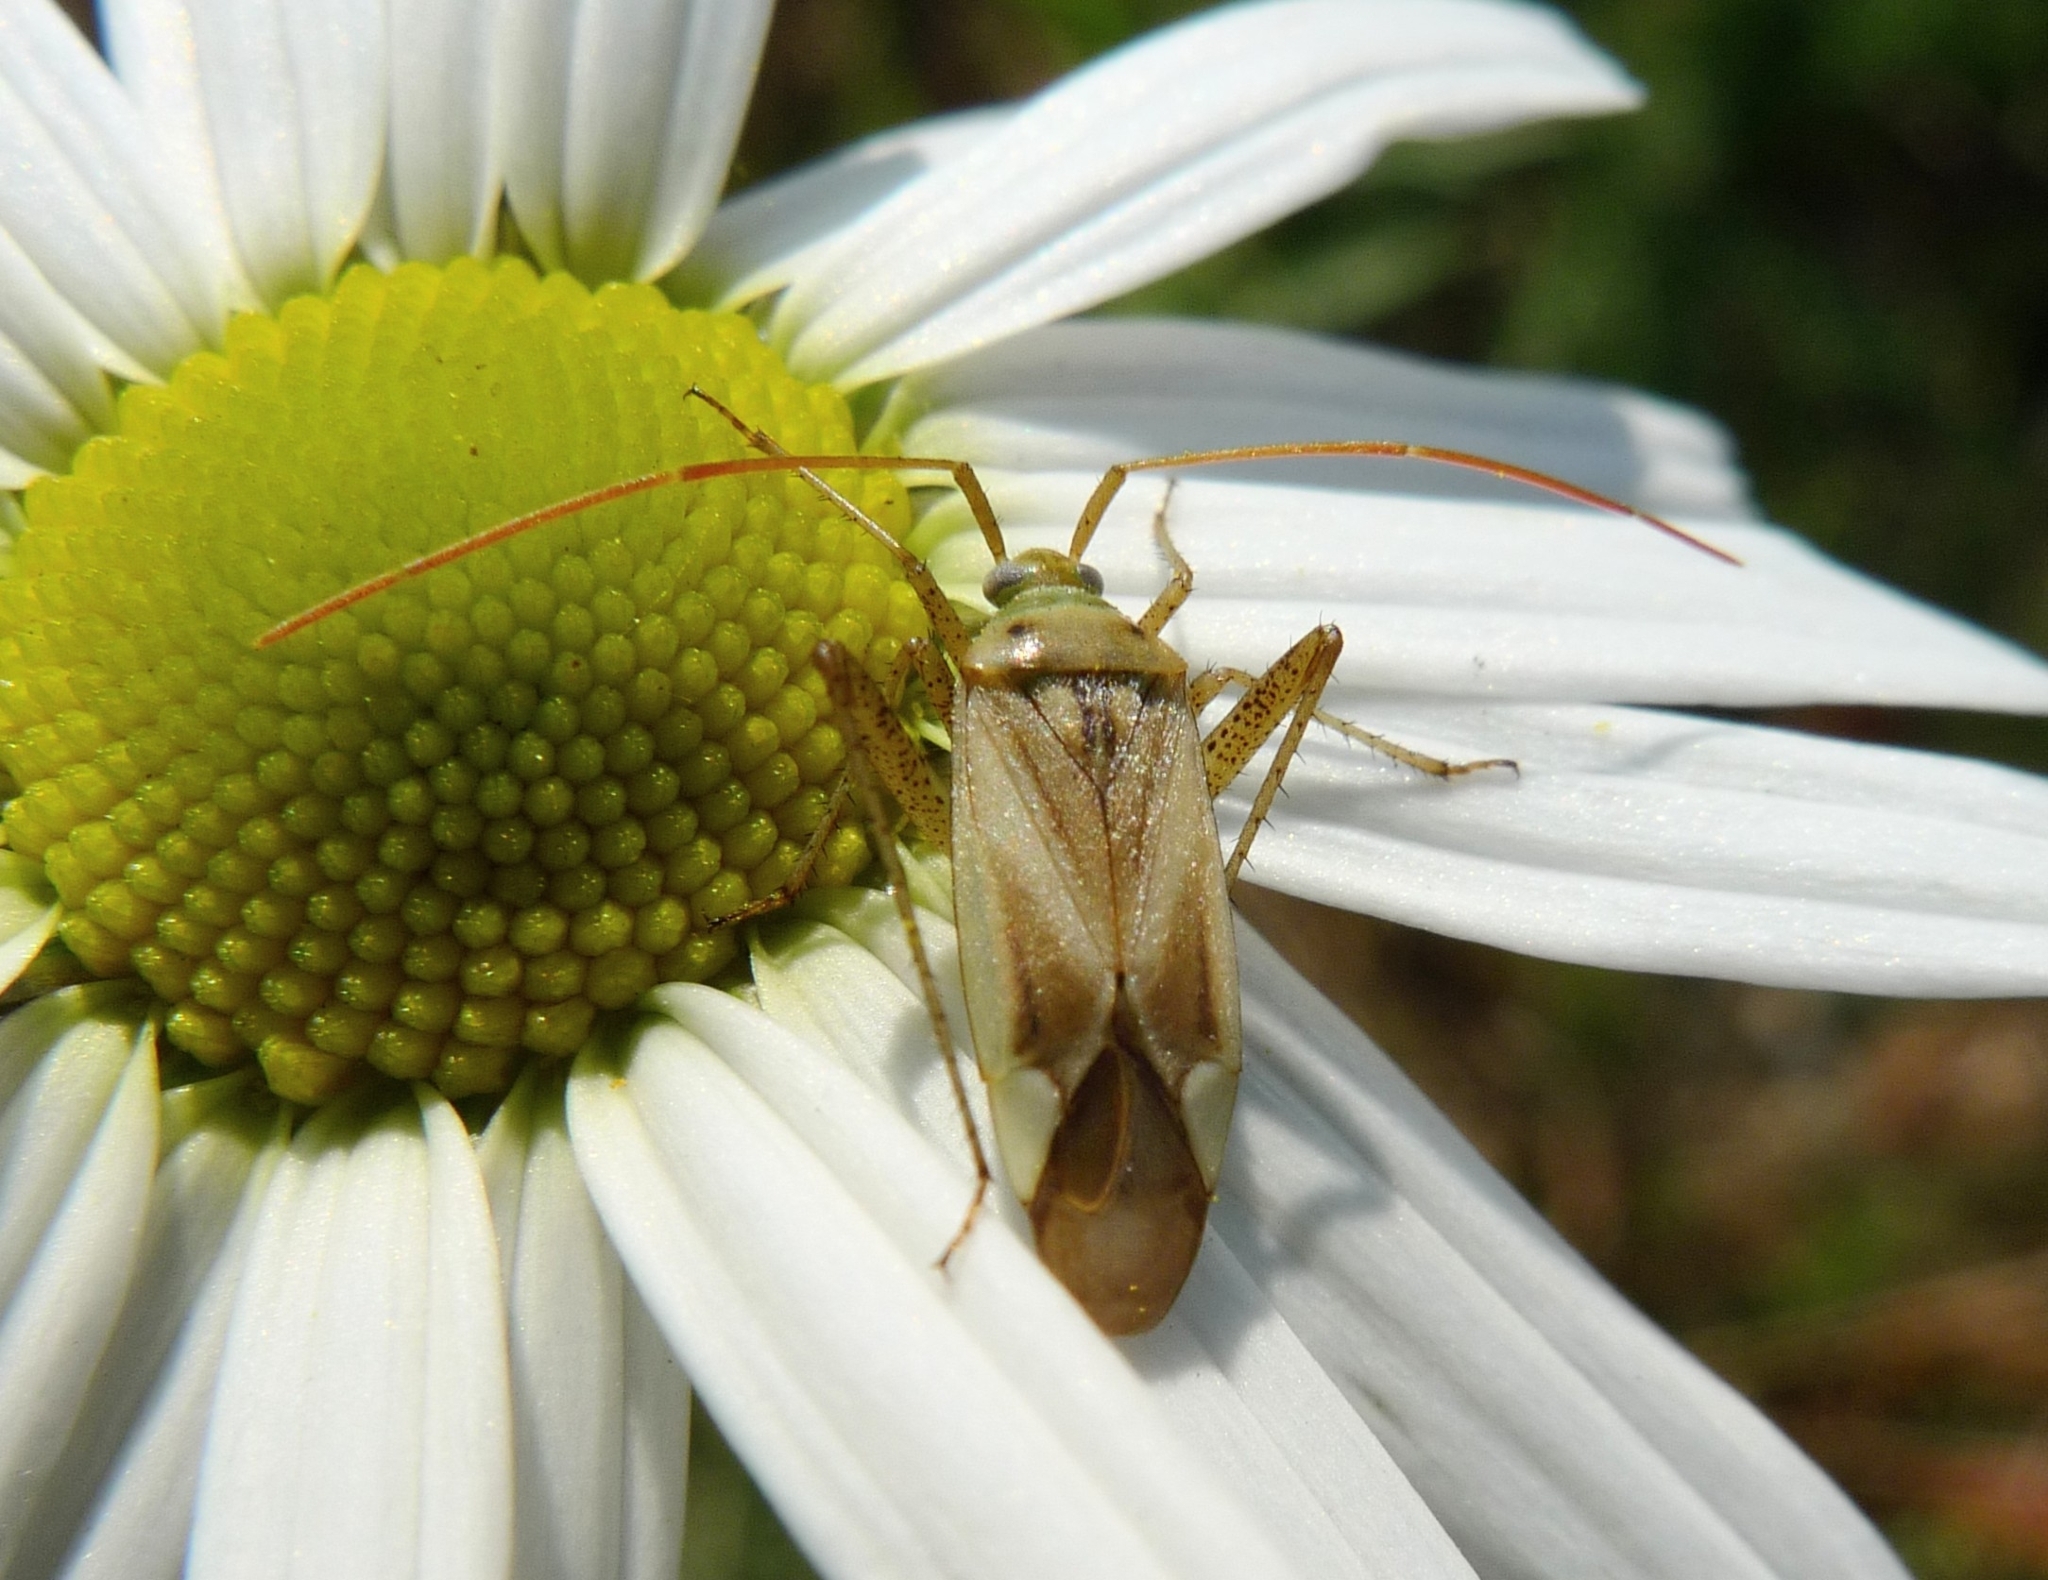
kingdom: Animalia
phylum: Arthropoda
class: Insecta
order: Hemiptera
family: Miridae
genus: Adelphocoris
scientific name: Adelphocoris lineolatus
